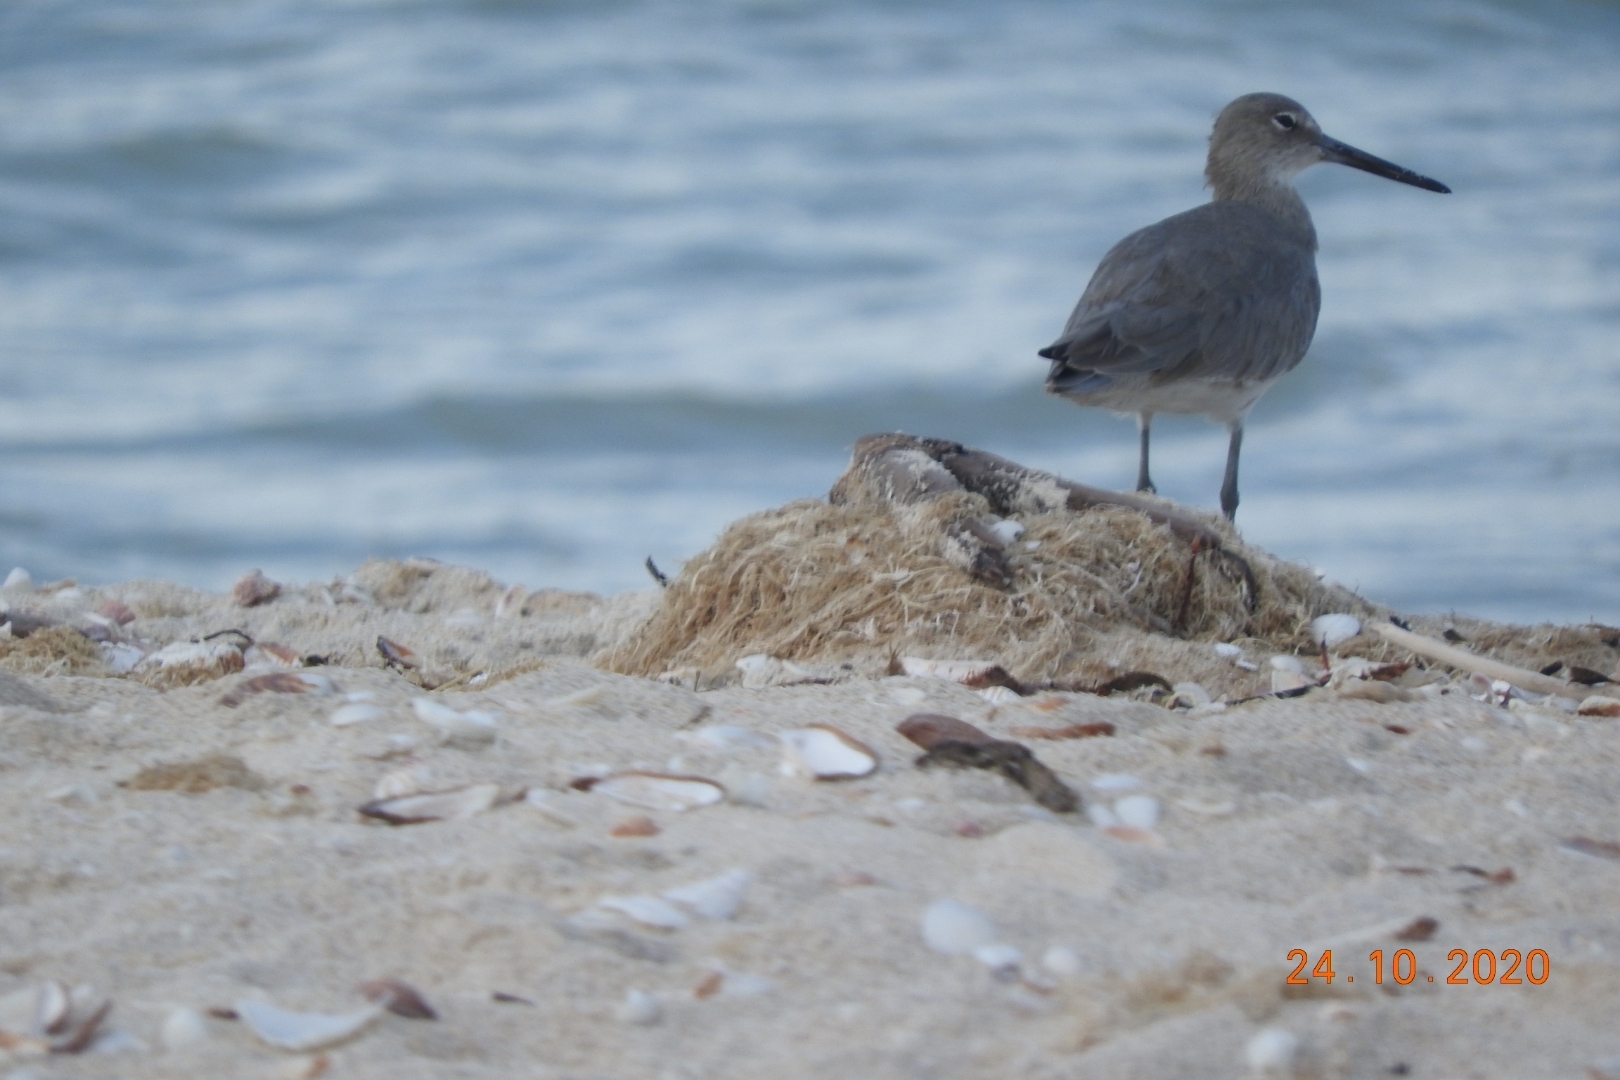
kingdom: Animalia
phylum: Chordata
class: Aves
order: Charadriiformes
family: Scolopacidae
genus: Tringa
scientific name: Tringa semipalmata
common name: Willet
